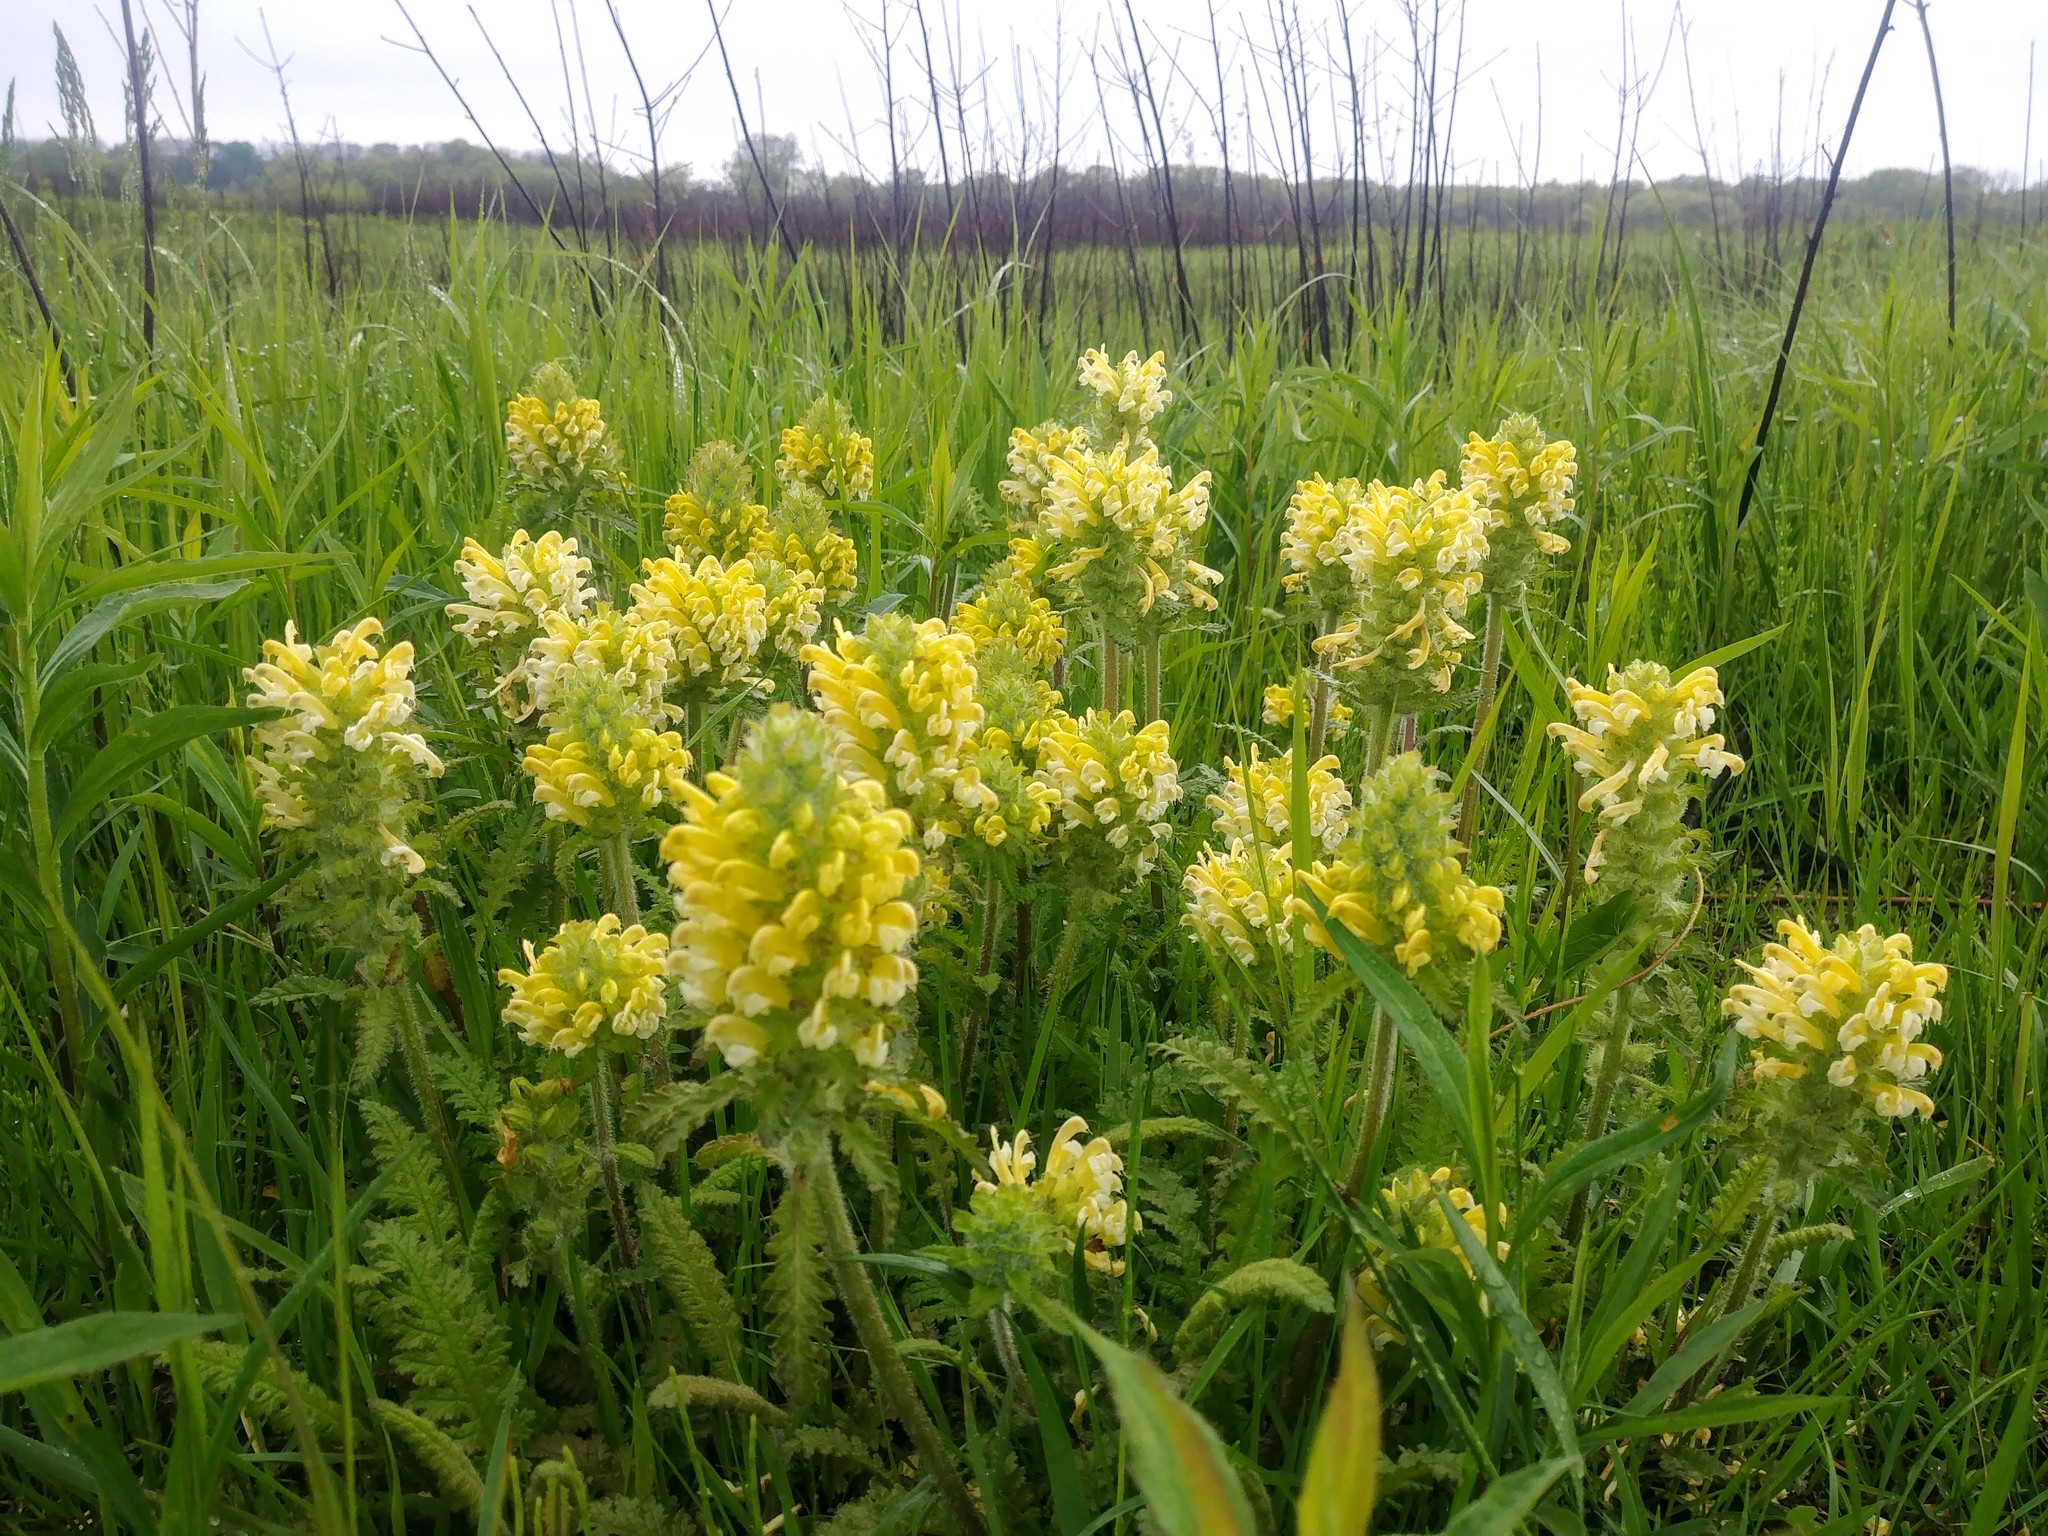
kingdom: Plantae
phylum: Tracheophyta
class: Magnoliopsida
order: Lamiales
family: Orobanchaceae
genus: Pedicularis
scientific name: Pedicularis canadensis
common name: Early lousewort
